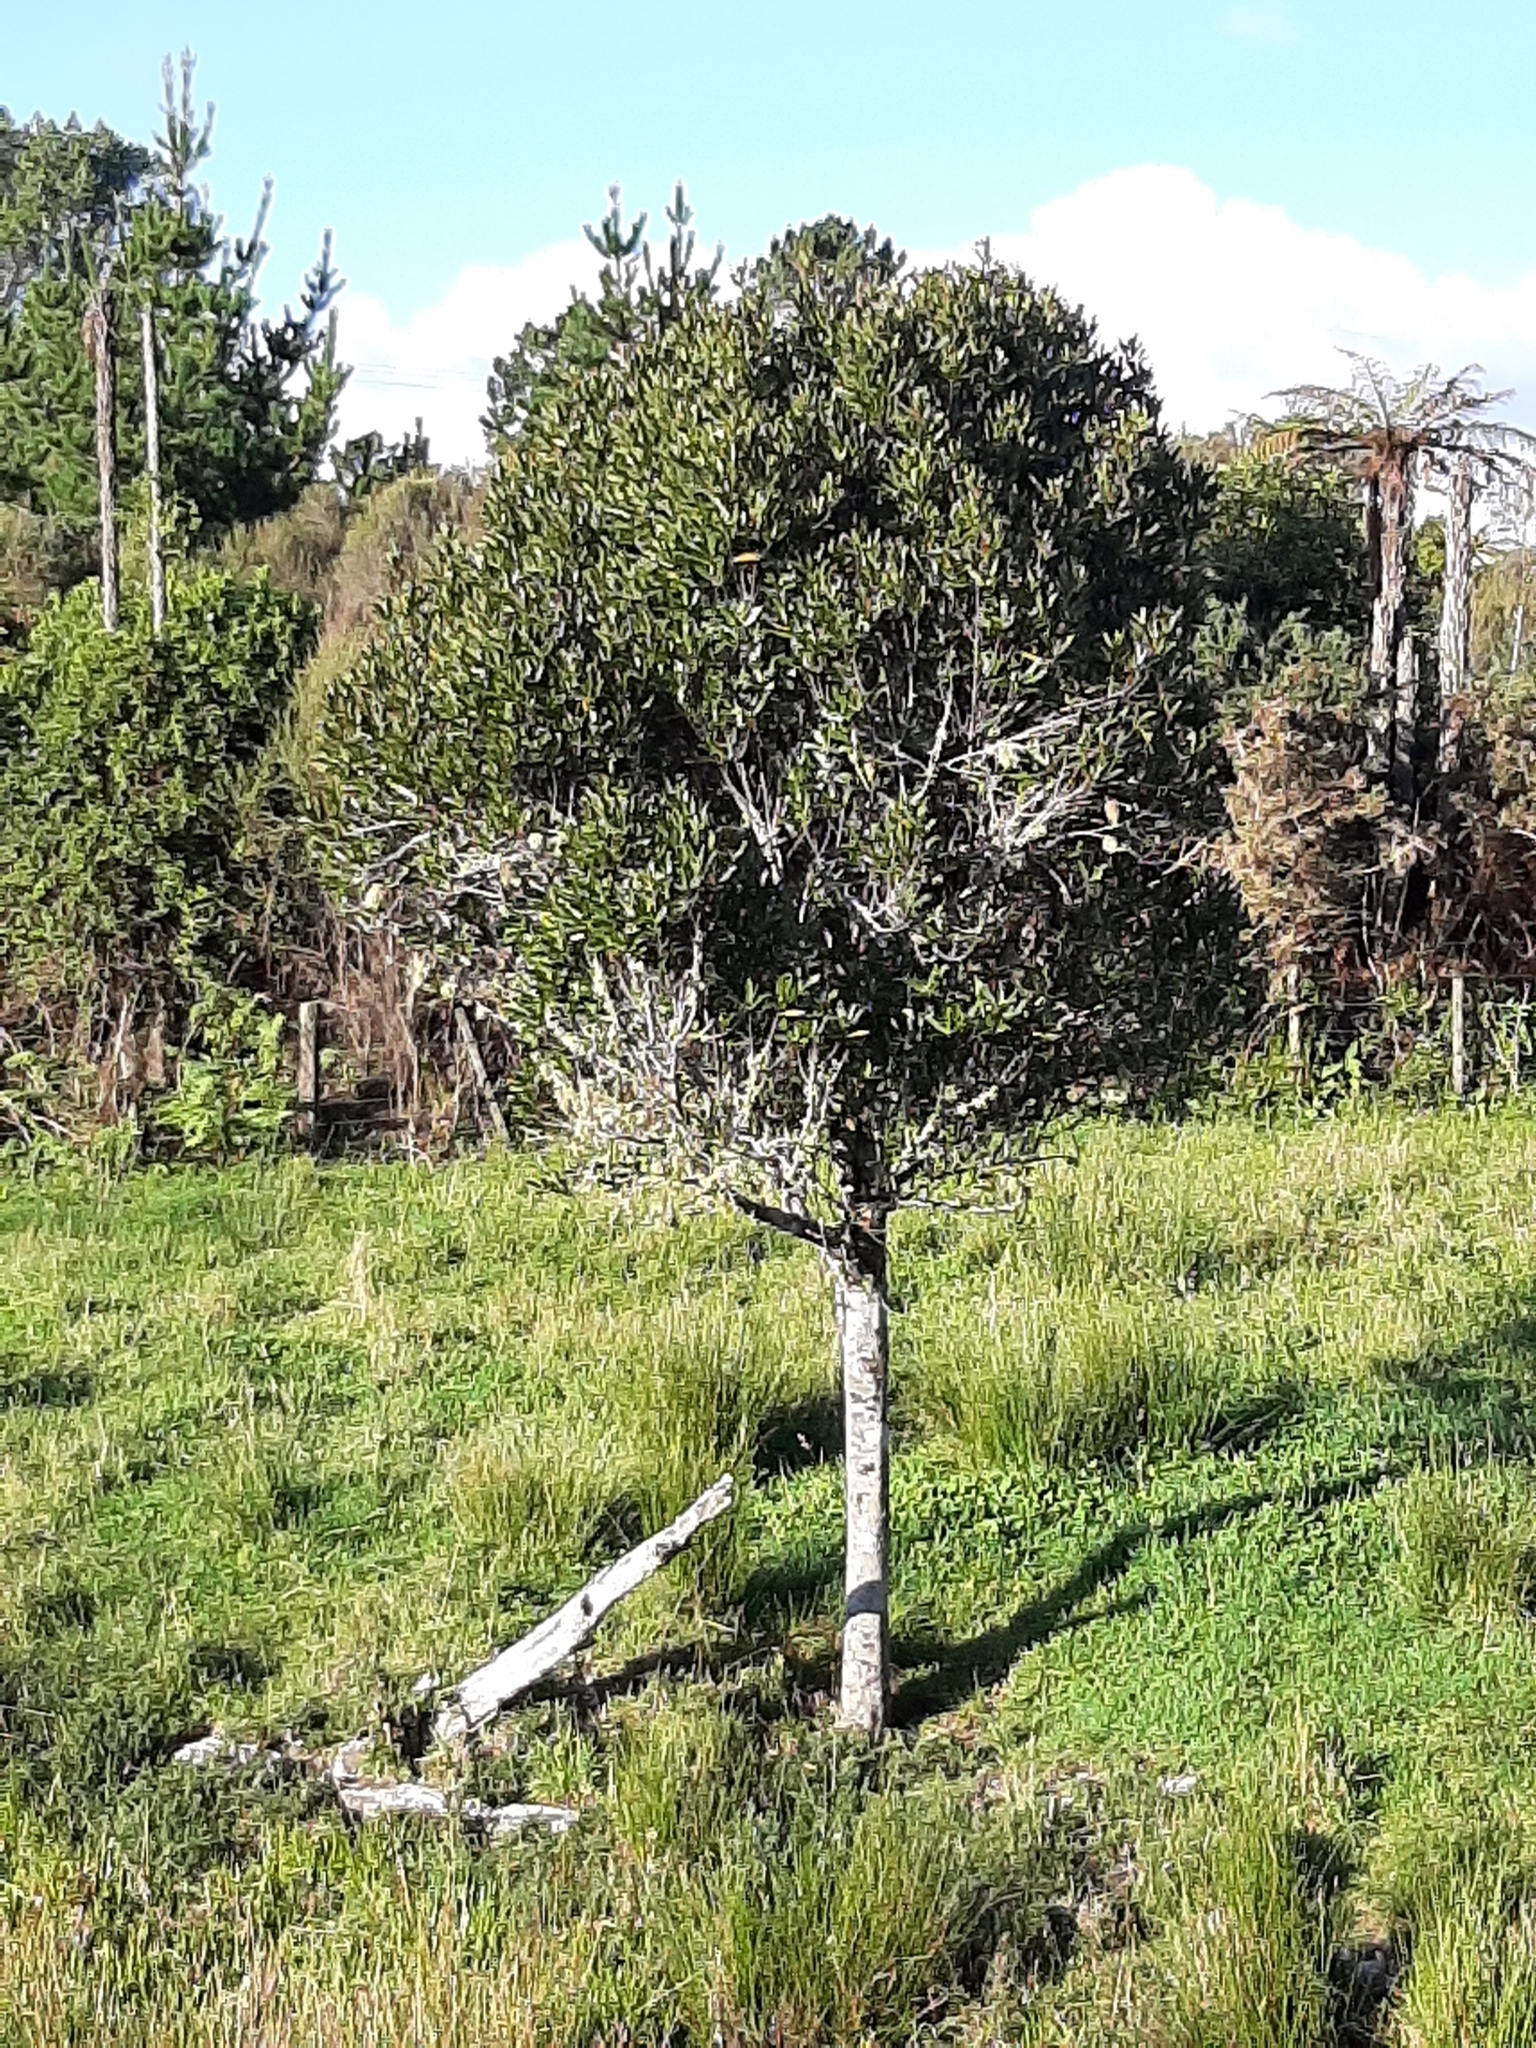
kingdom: Plantae
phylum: Tracheophyta
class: Magnoliopsida
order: Oxalidales
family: Elaeocarpaceae
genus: Elaeocarpus
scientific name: Elaeocarpus dentatus
